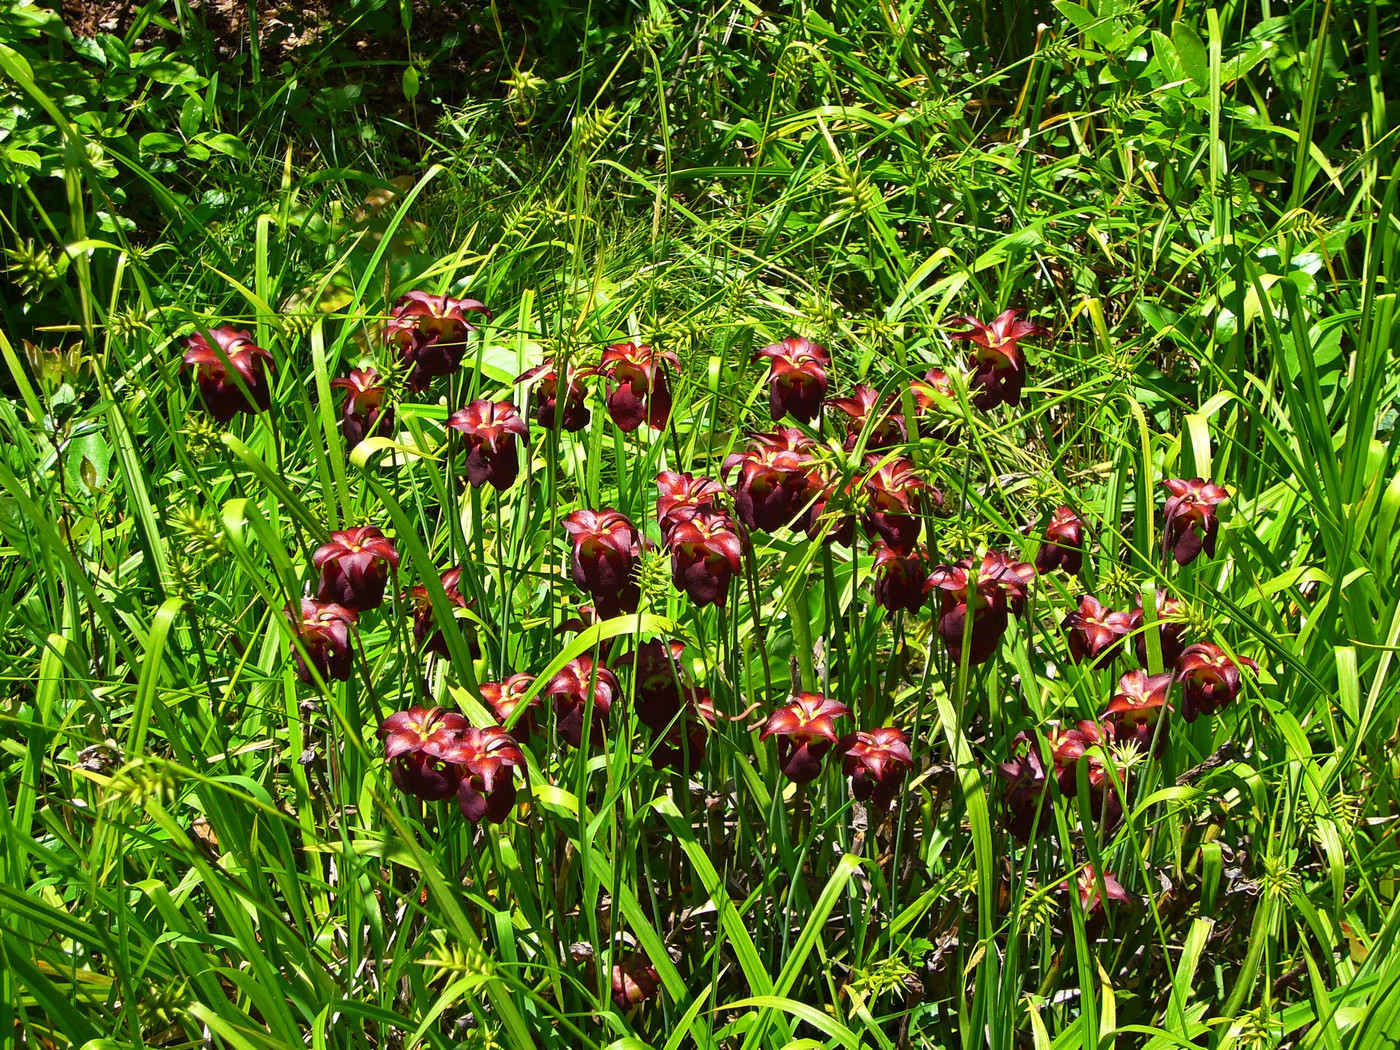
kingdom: Plantae
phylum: Tracheophyta
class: Magnoliopsida
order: Ericales
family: Sarraceniaceae
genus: Sarracenia
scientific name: Sarracenia jonesii
